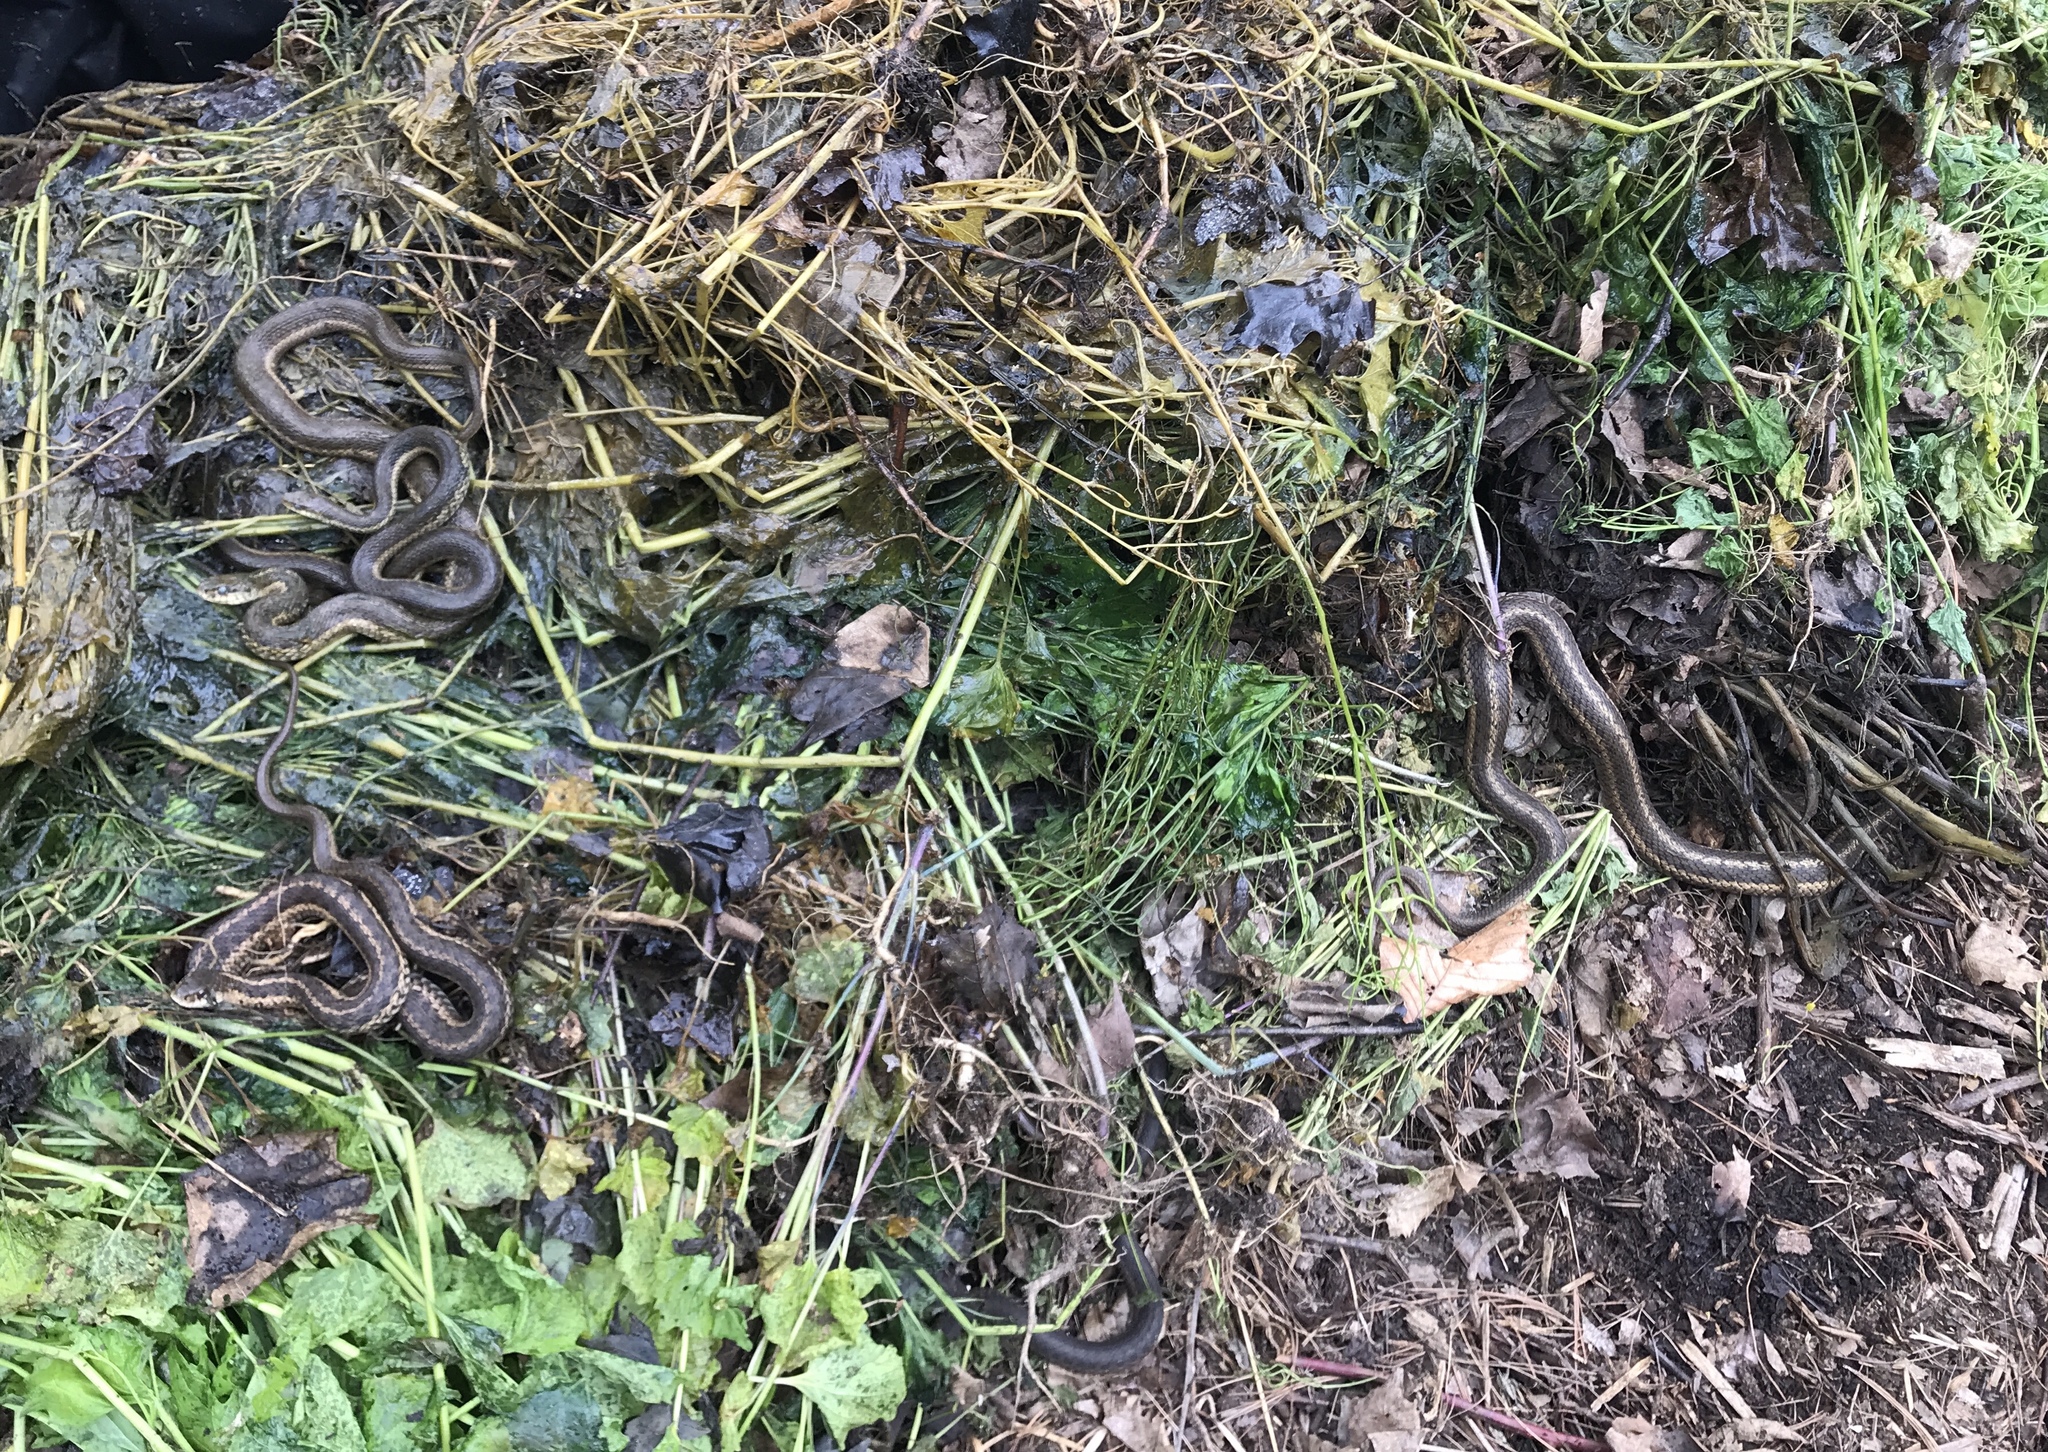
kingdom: Animalia
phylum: Chordata
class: Squamata
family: Colubridae
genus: Thamnophis
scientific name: Thamnophis sirtalis
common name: Common garter snake
